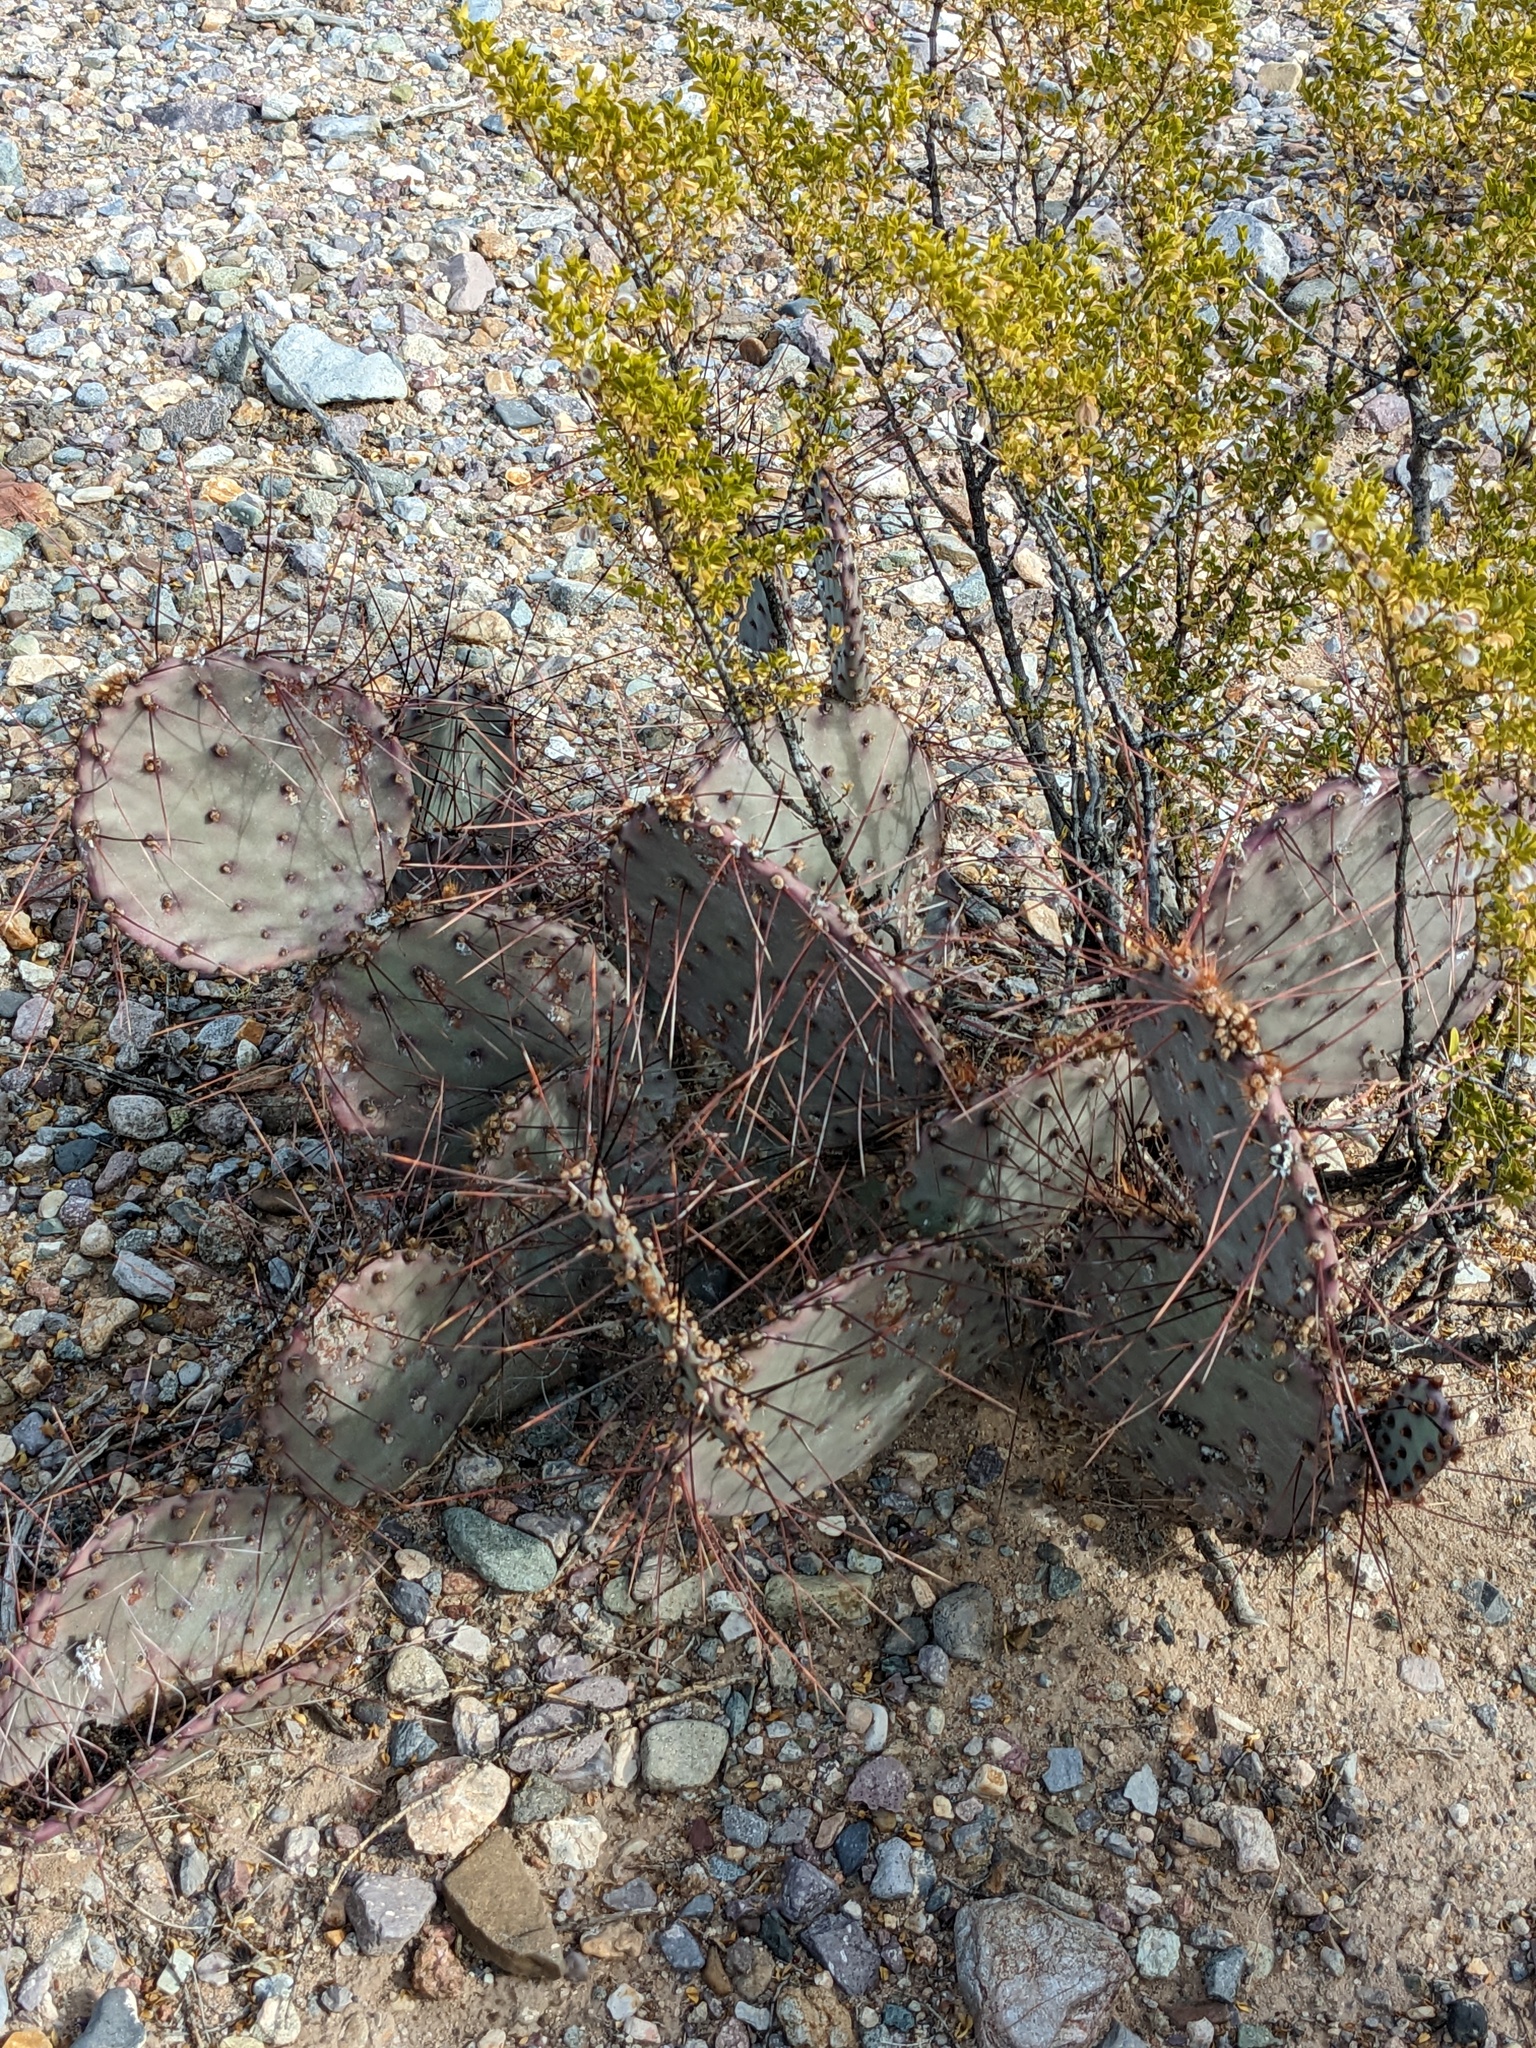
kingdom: Plantae
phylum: Tracheophyta
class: Magnoliopsida
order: Caryophyllales
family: Cactaceae
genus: Opuntia
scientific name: Opuntia macrocentra
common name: Purple prickly-pear
